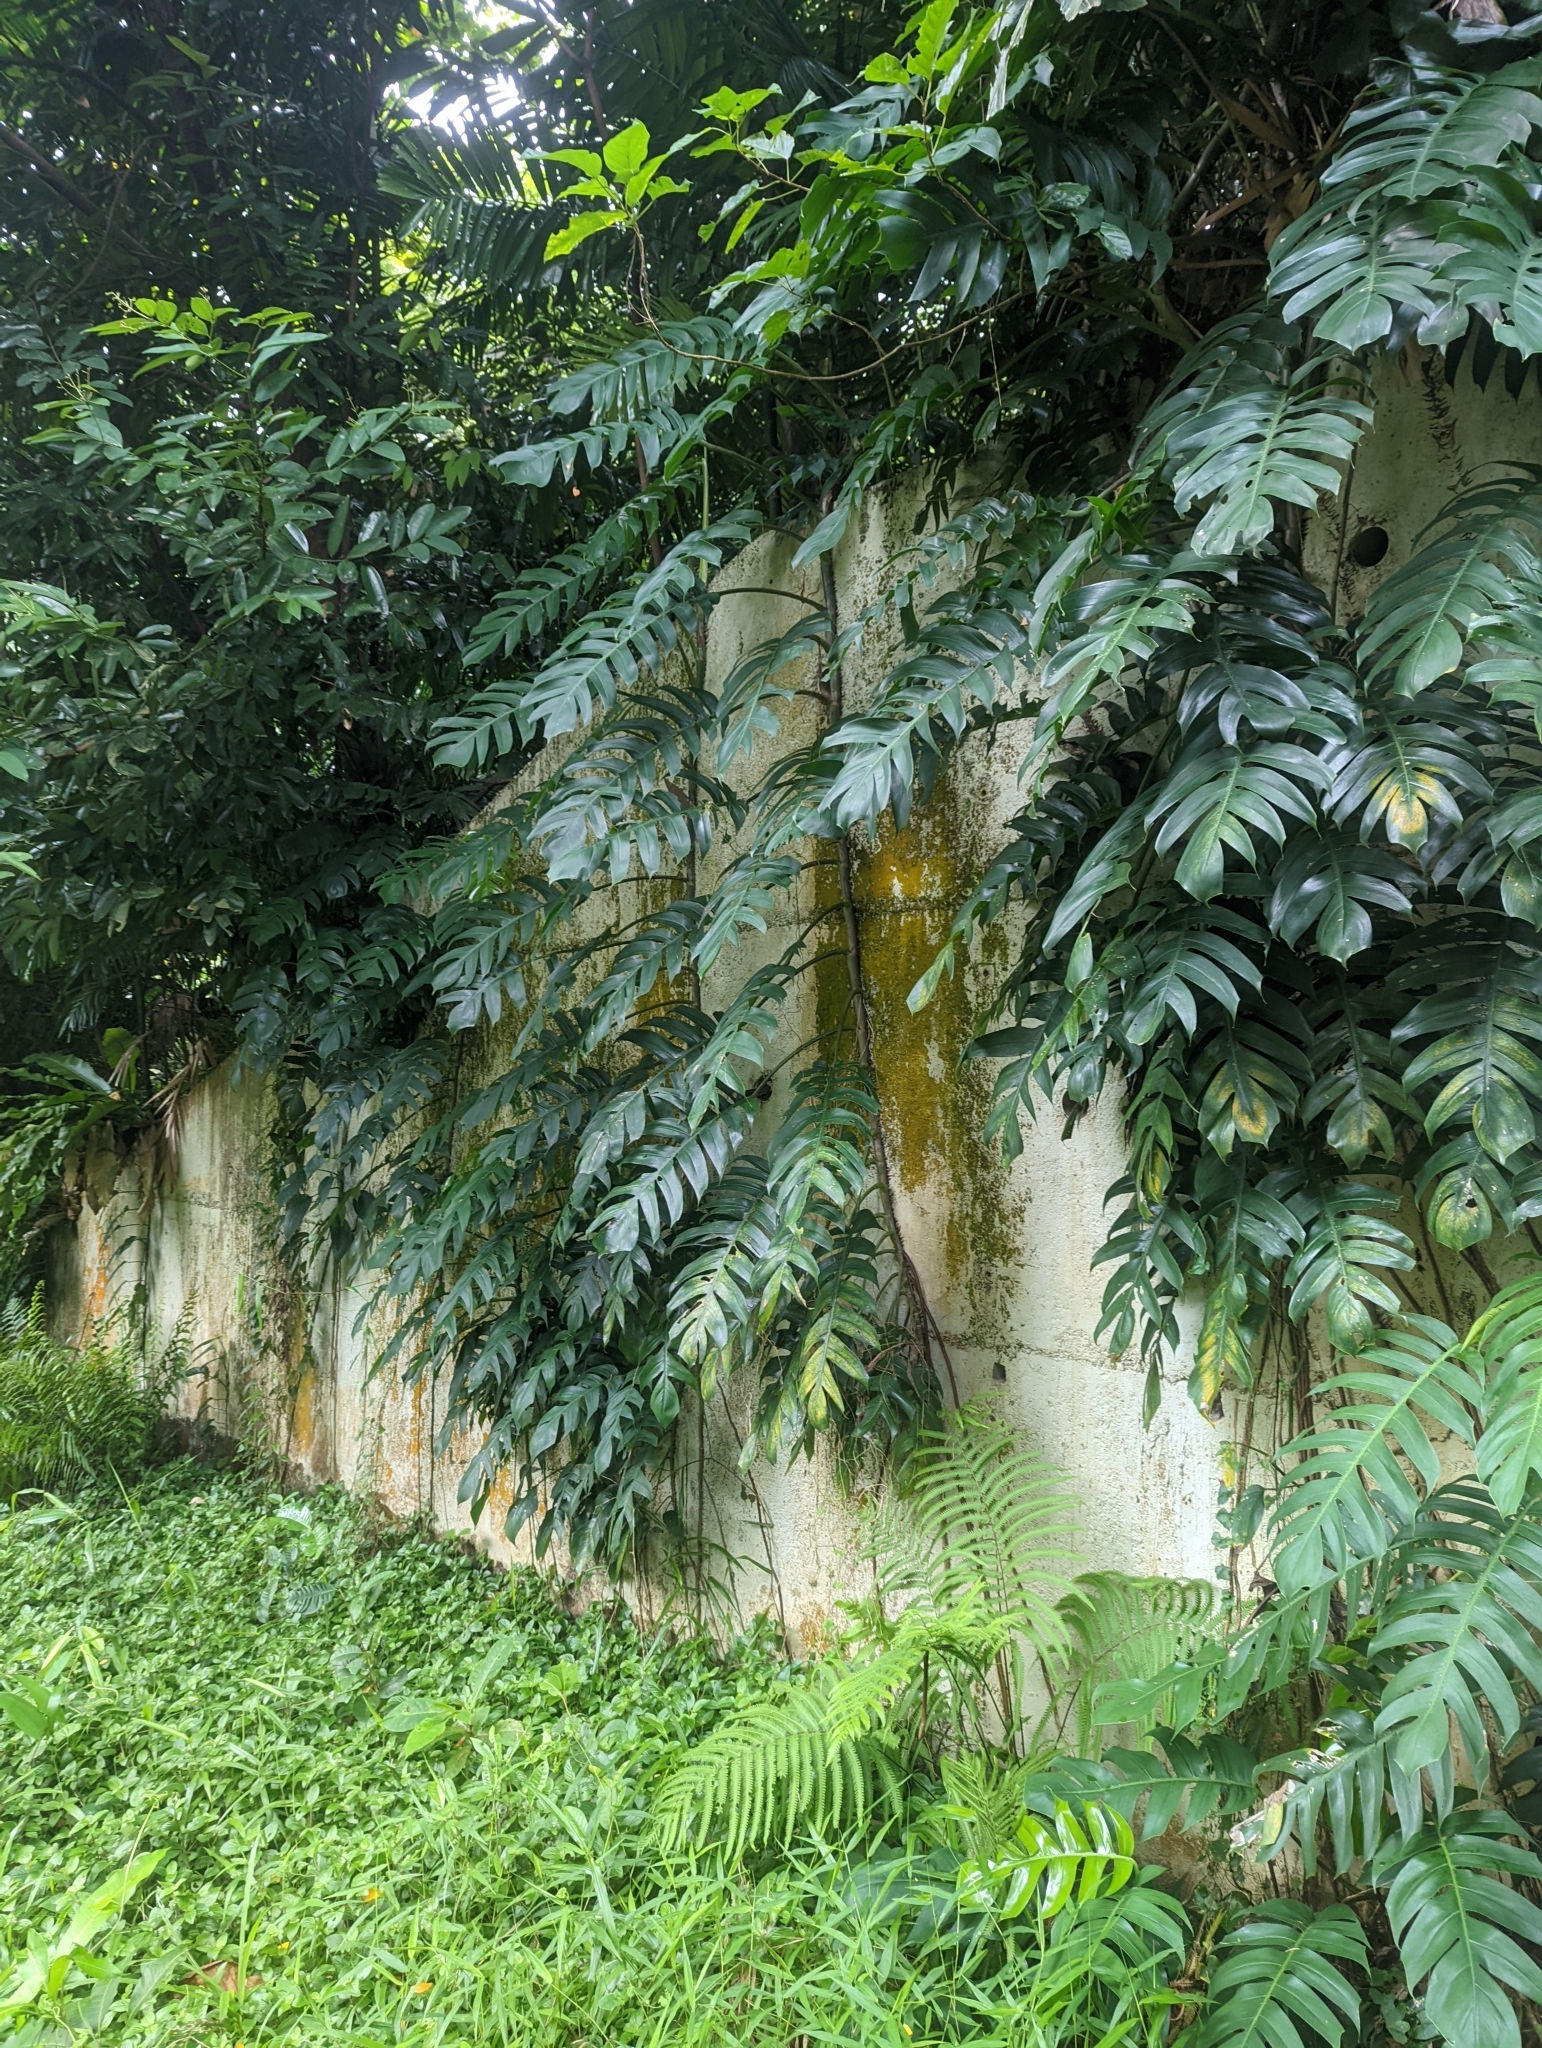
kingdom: Plantae
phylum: Tracheophyta
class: Liliopsida
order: Alismatales
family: Araceae
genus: Epipremnum
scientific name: Epipremnum pinnatum
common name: Centipede tongavine
